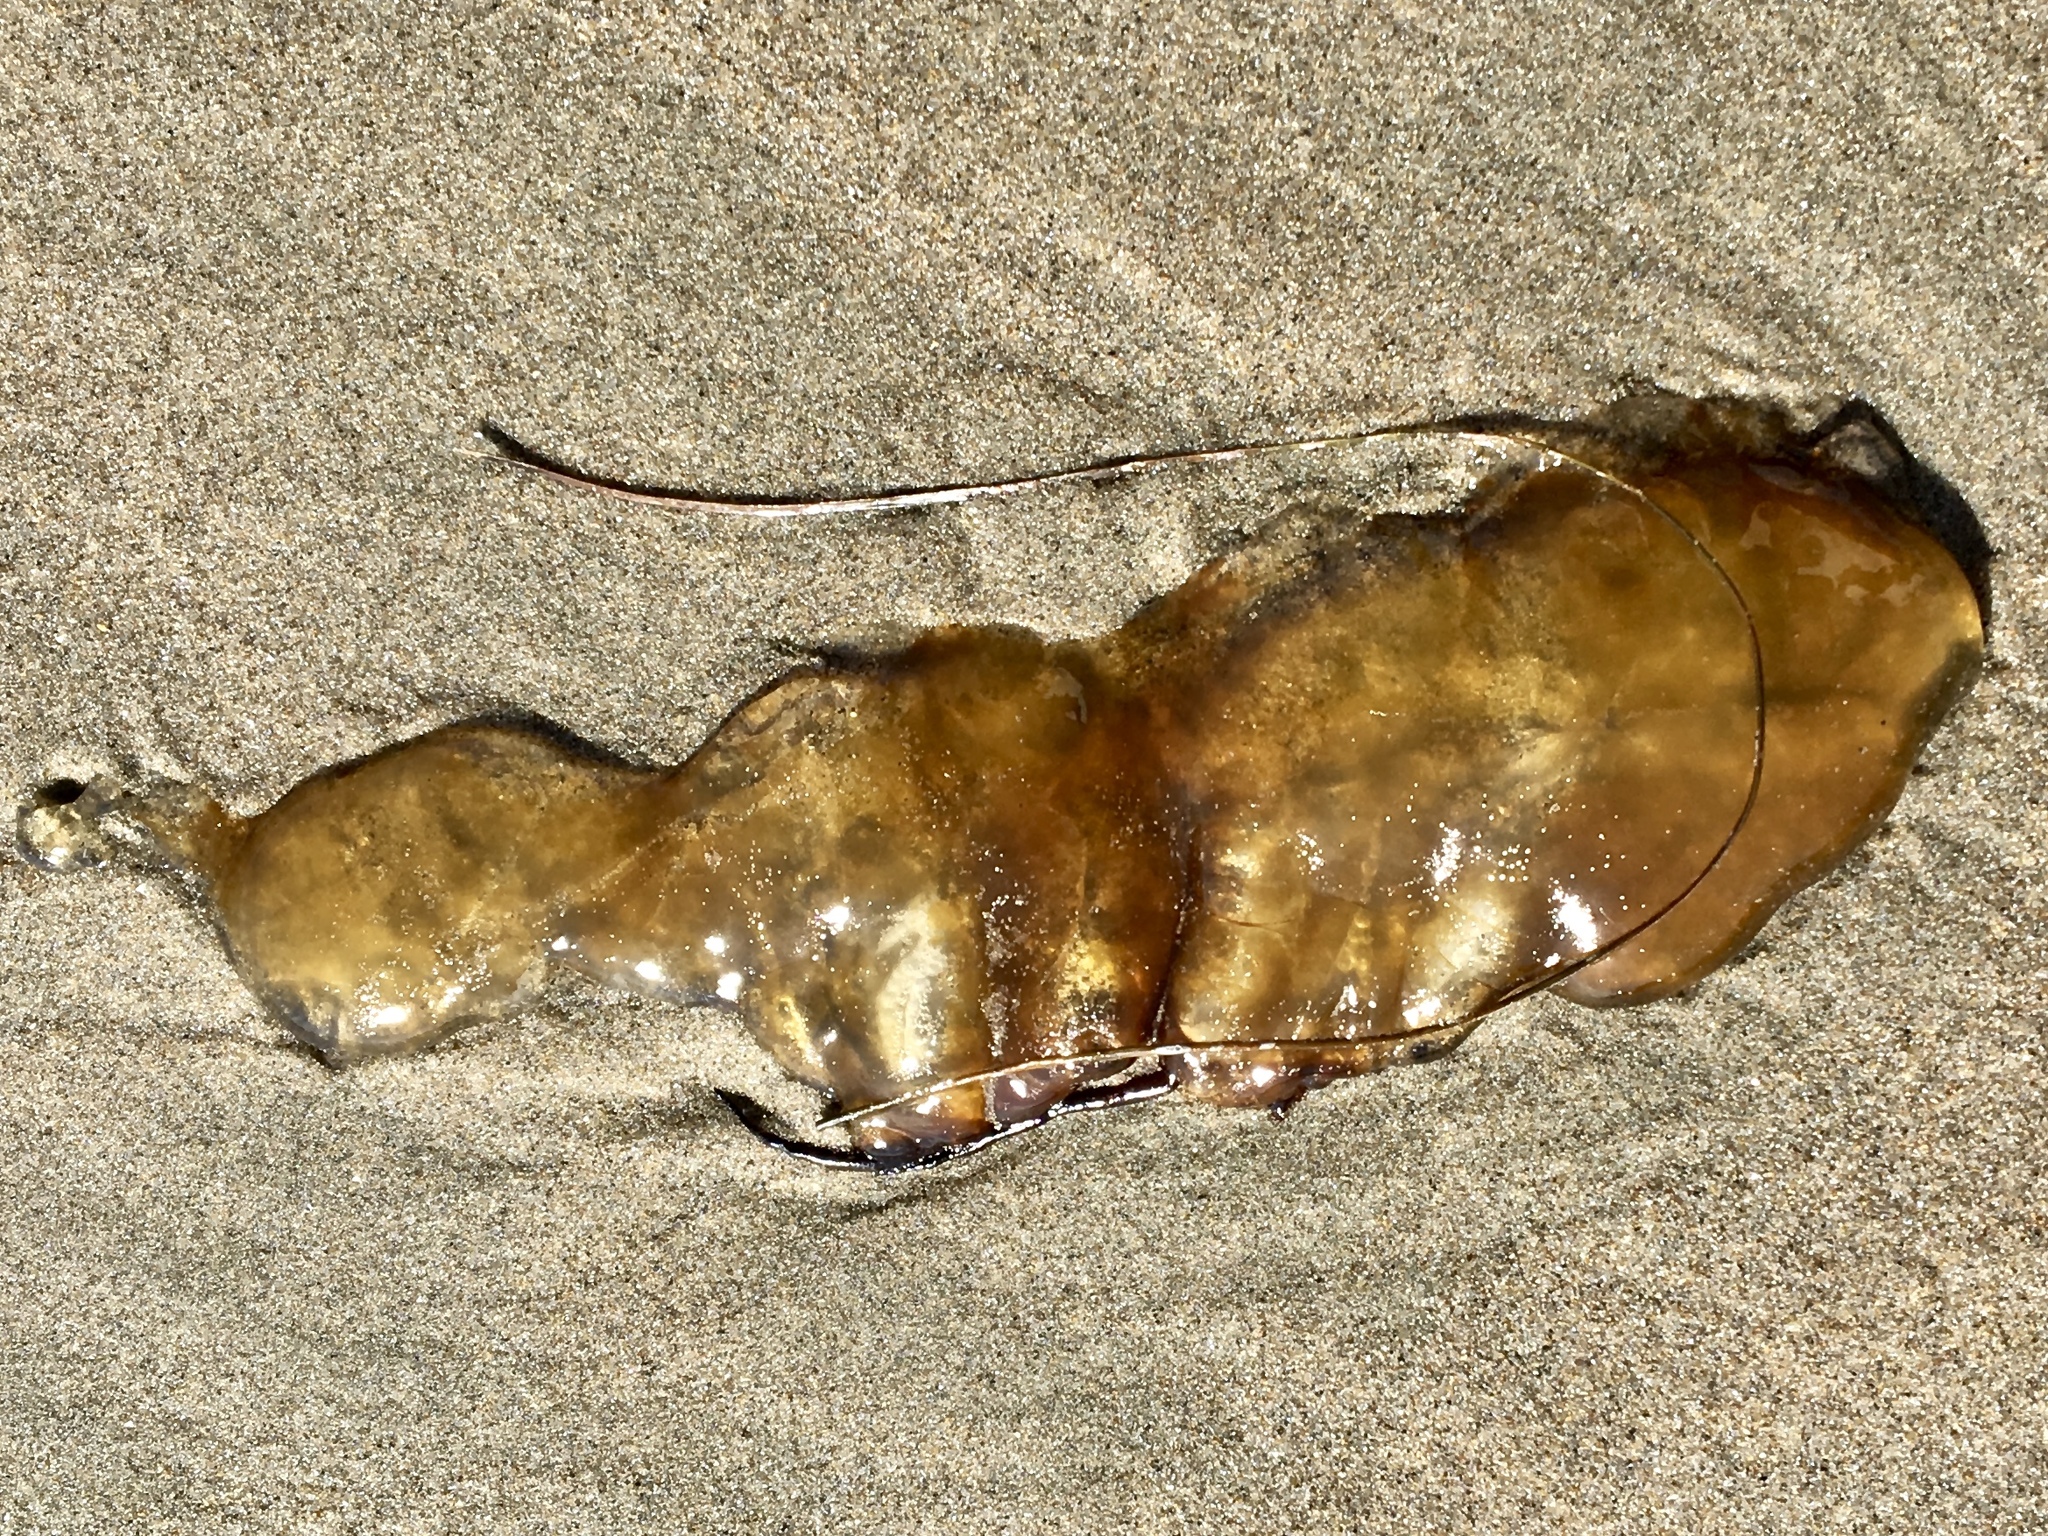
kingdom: Animalia
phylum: Cnidaria
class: Scyphozoa
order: Semaeostomeae
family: Pelagiidae
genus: Chrysaora
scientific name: Chrysaora fuscescens
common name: Sea nettle
